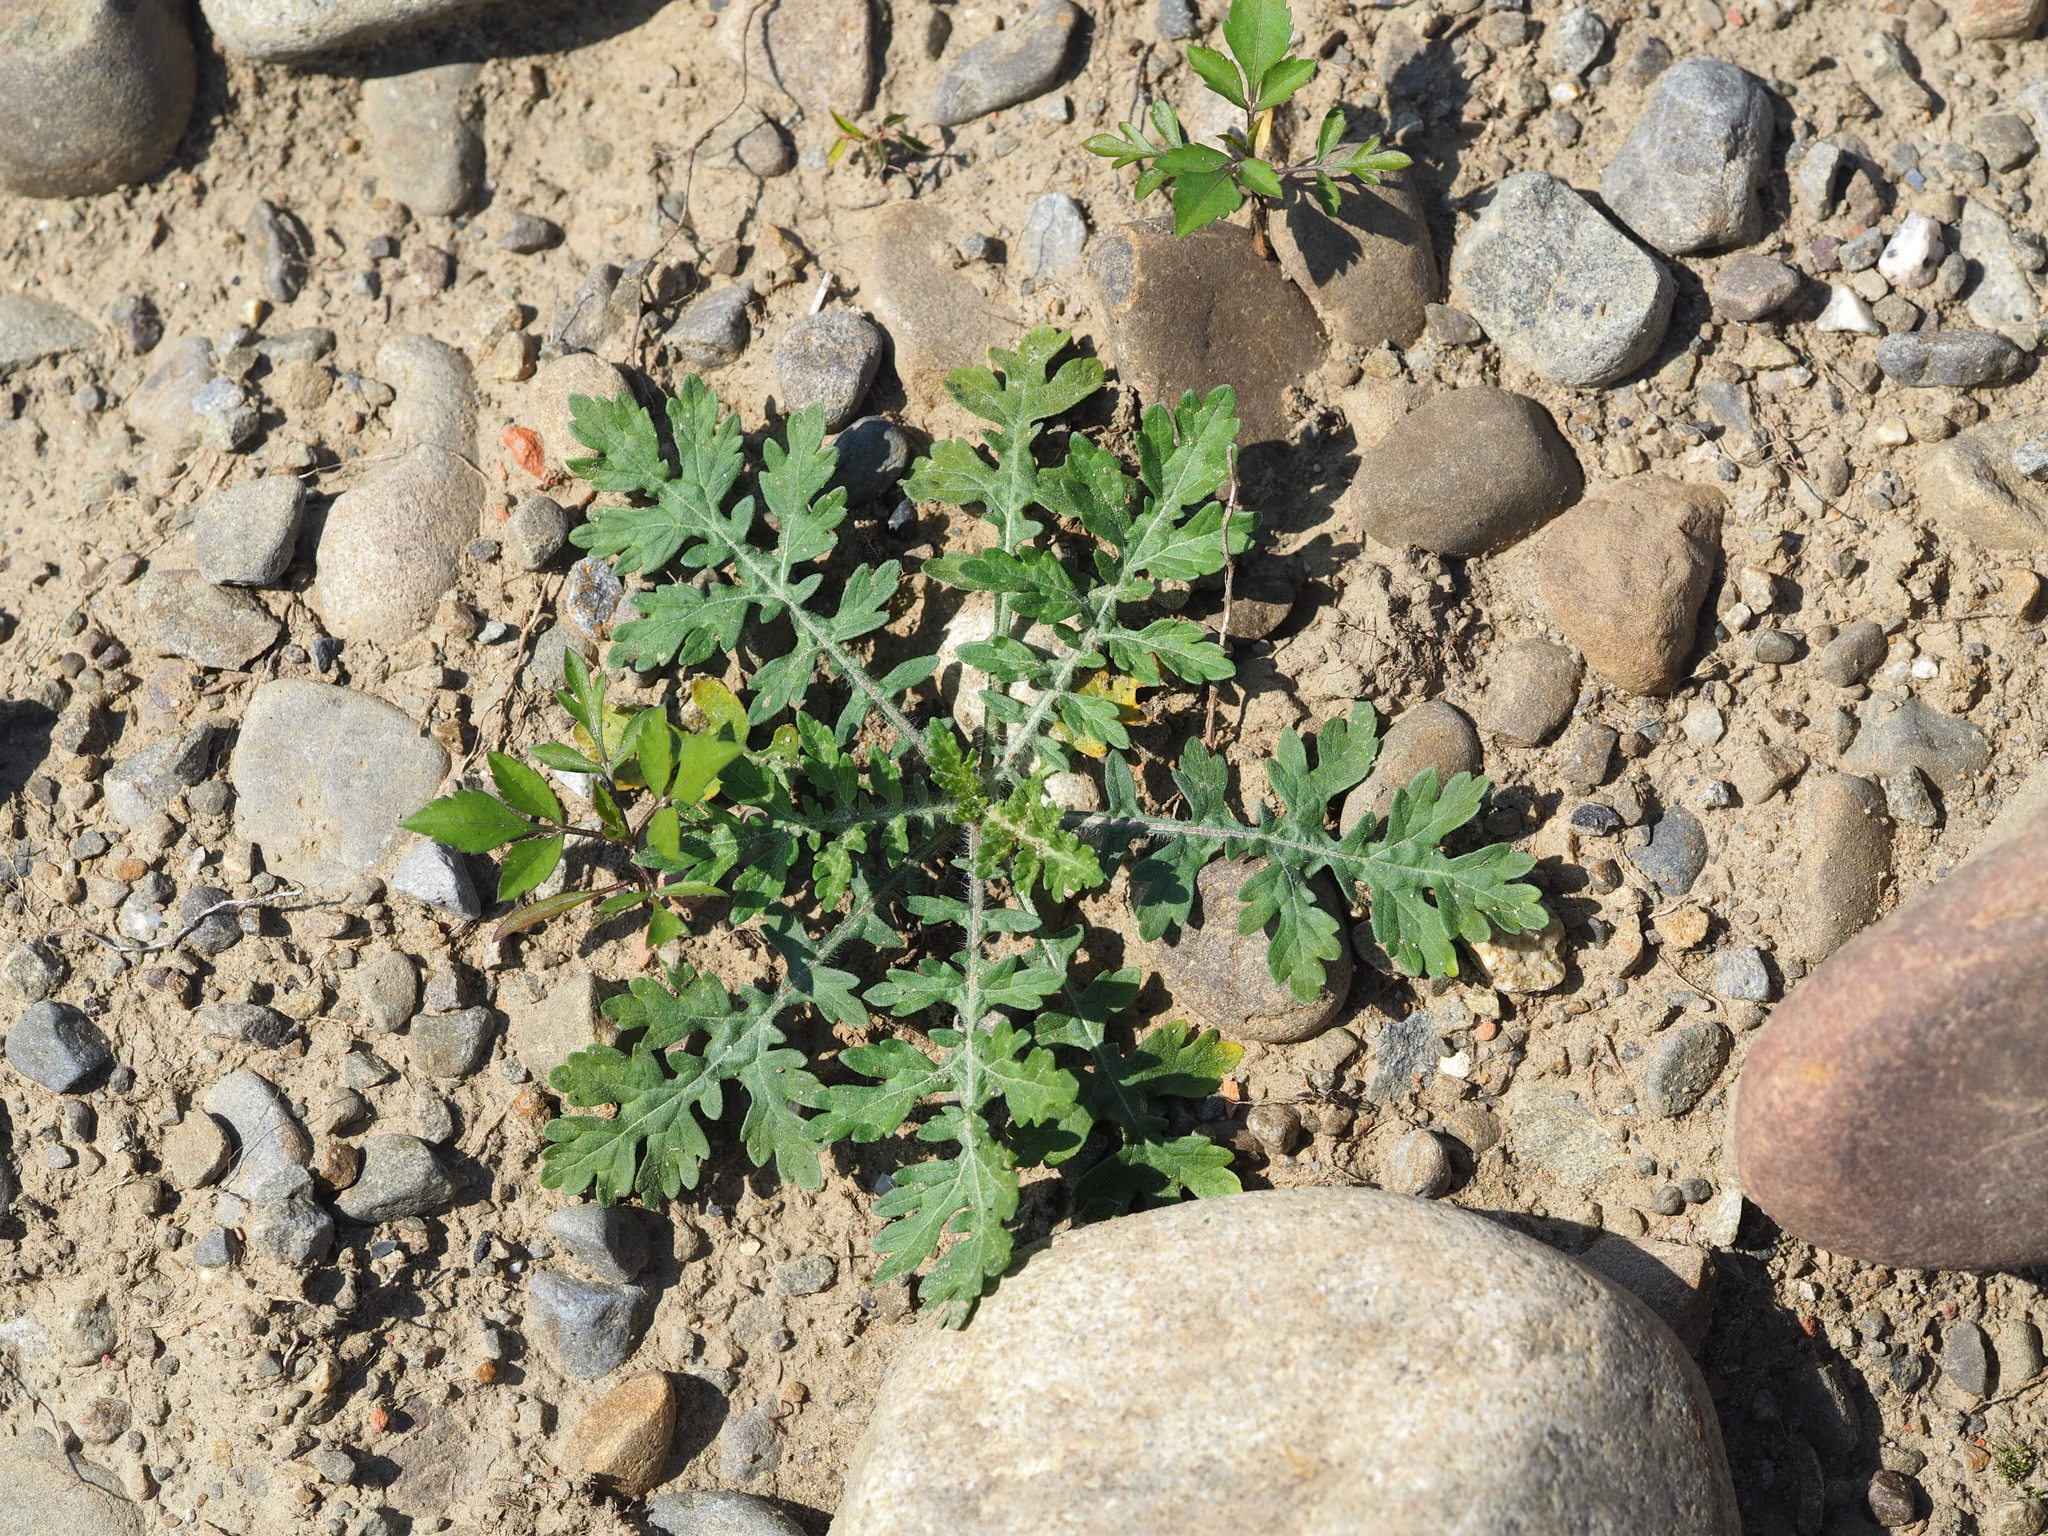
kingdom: Plantae
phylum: Tracheophyta
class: Magnoliopsida
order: Asterales
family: Asteraceae
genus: Parthenium
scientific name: Parthenium hysterophorus
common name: Santa maria feverfew
